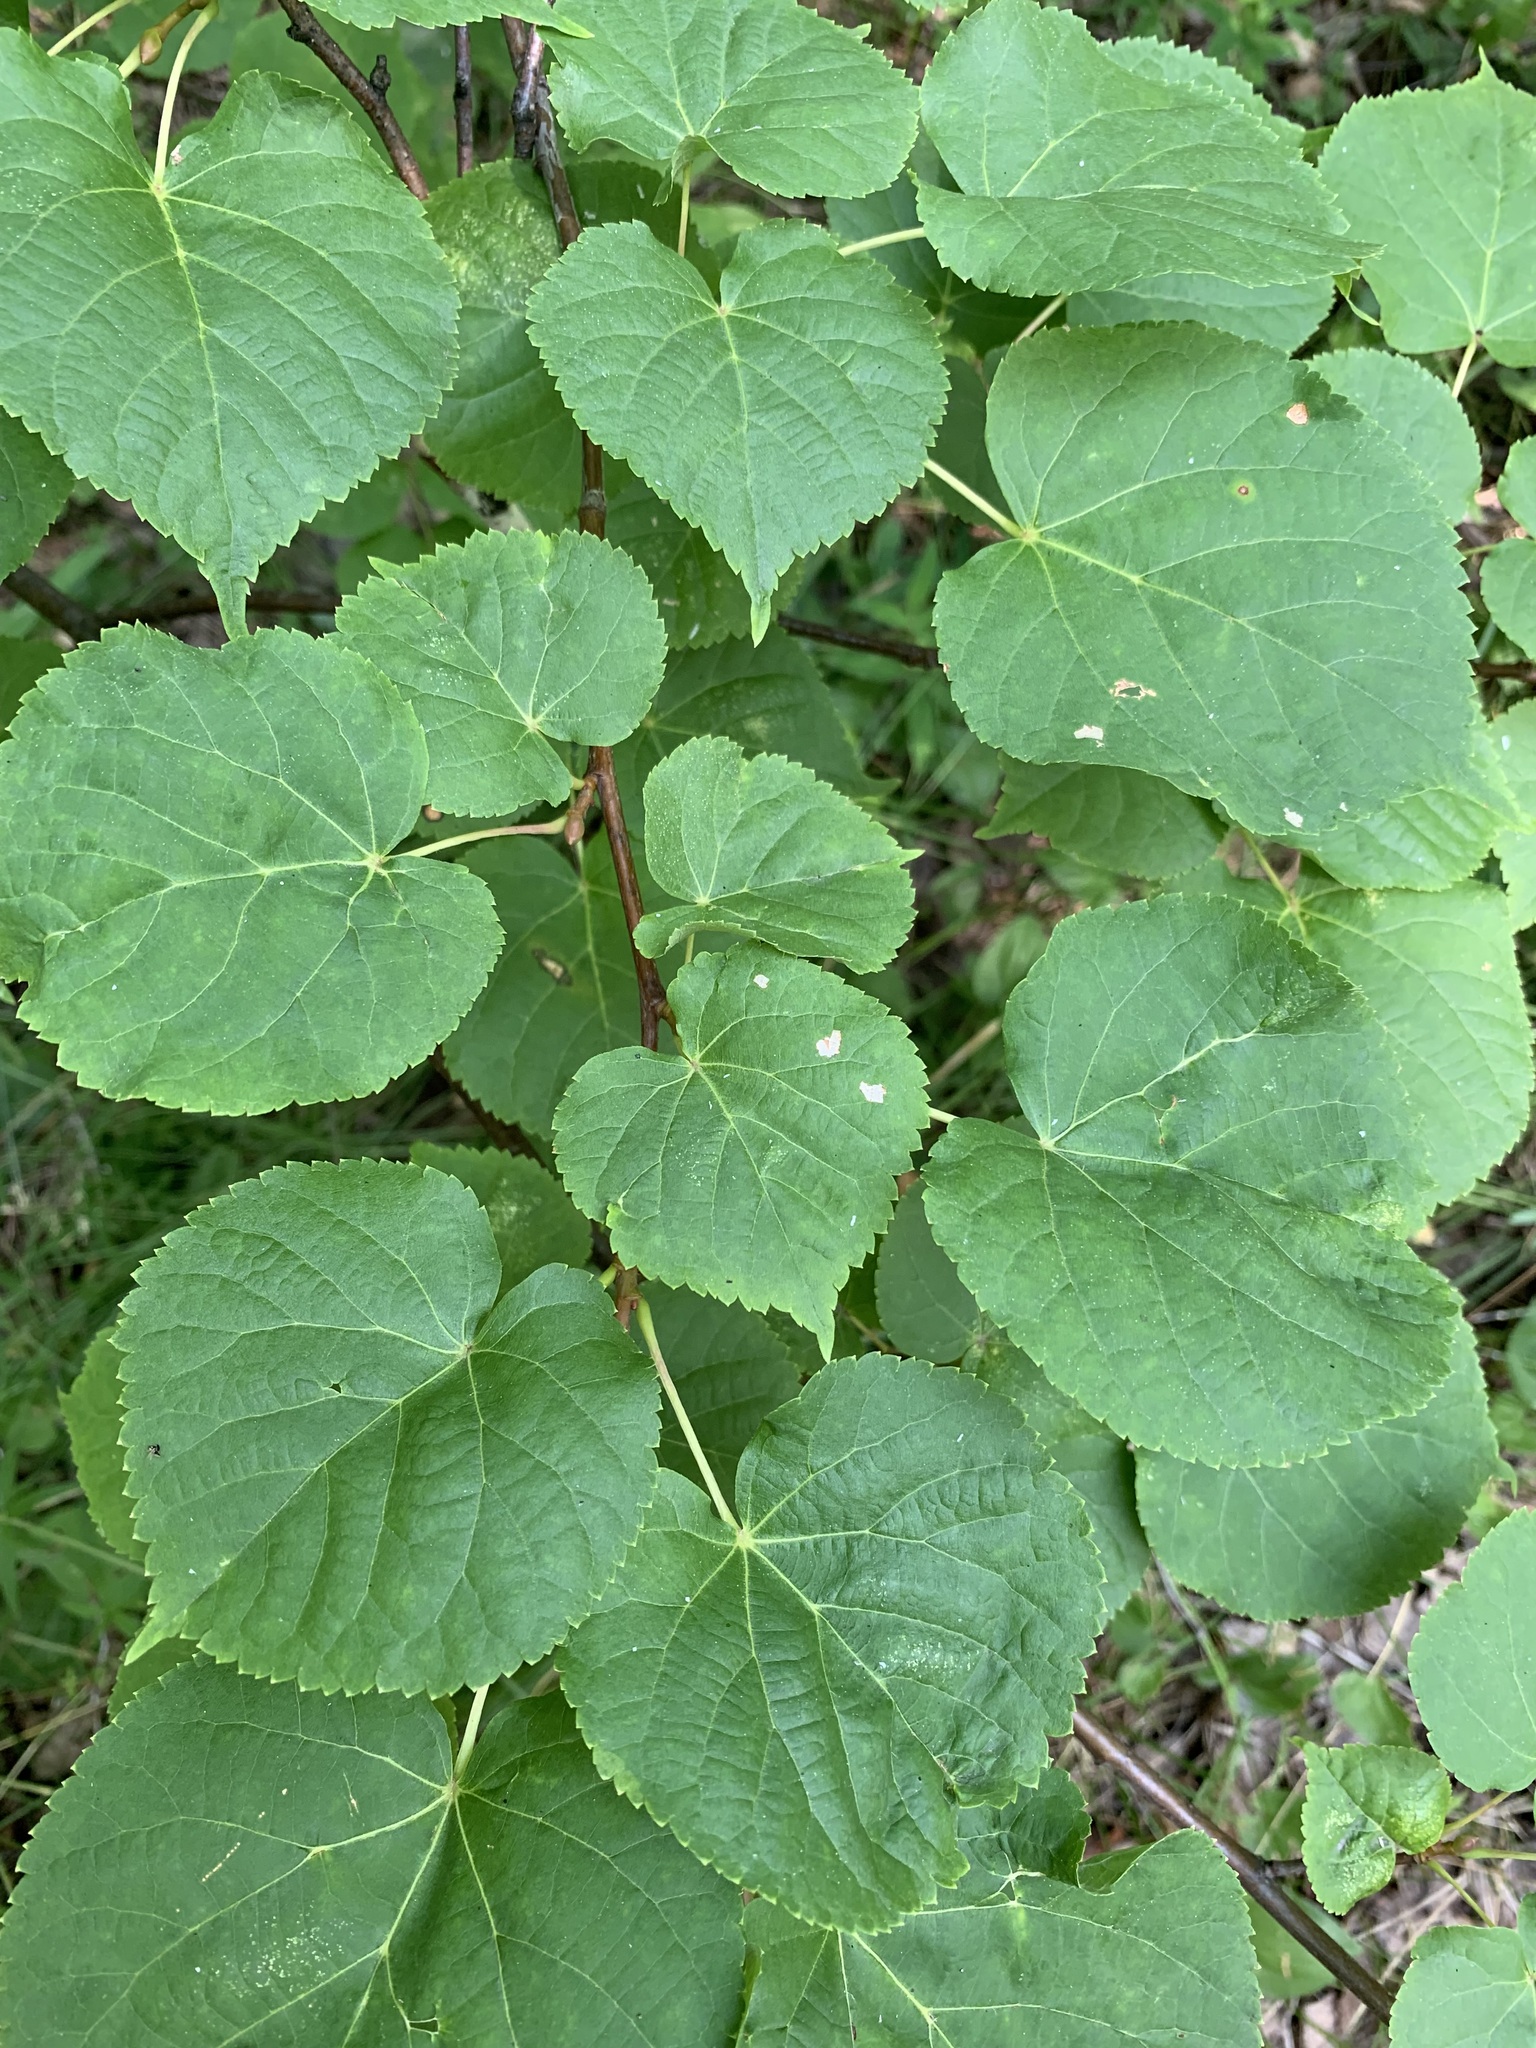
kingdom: Plantae
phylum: Tracheophyta
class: Magnoliopsida
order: Malvales
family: Malvaceae
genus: Tilia
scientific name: Tilia cordata
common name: Small-leaved lime
